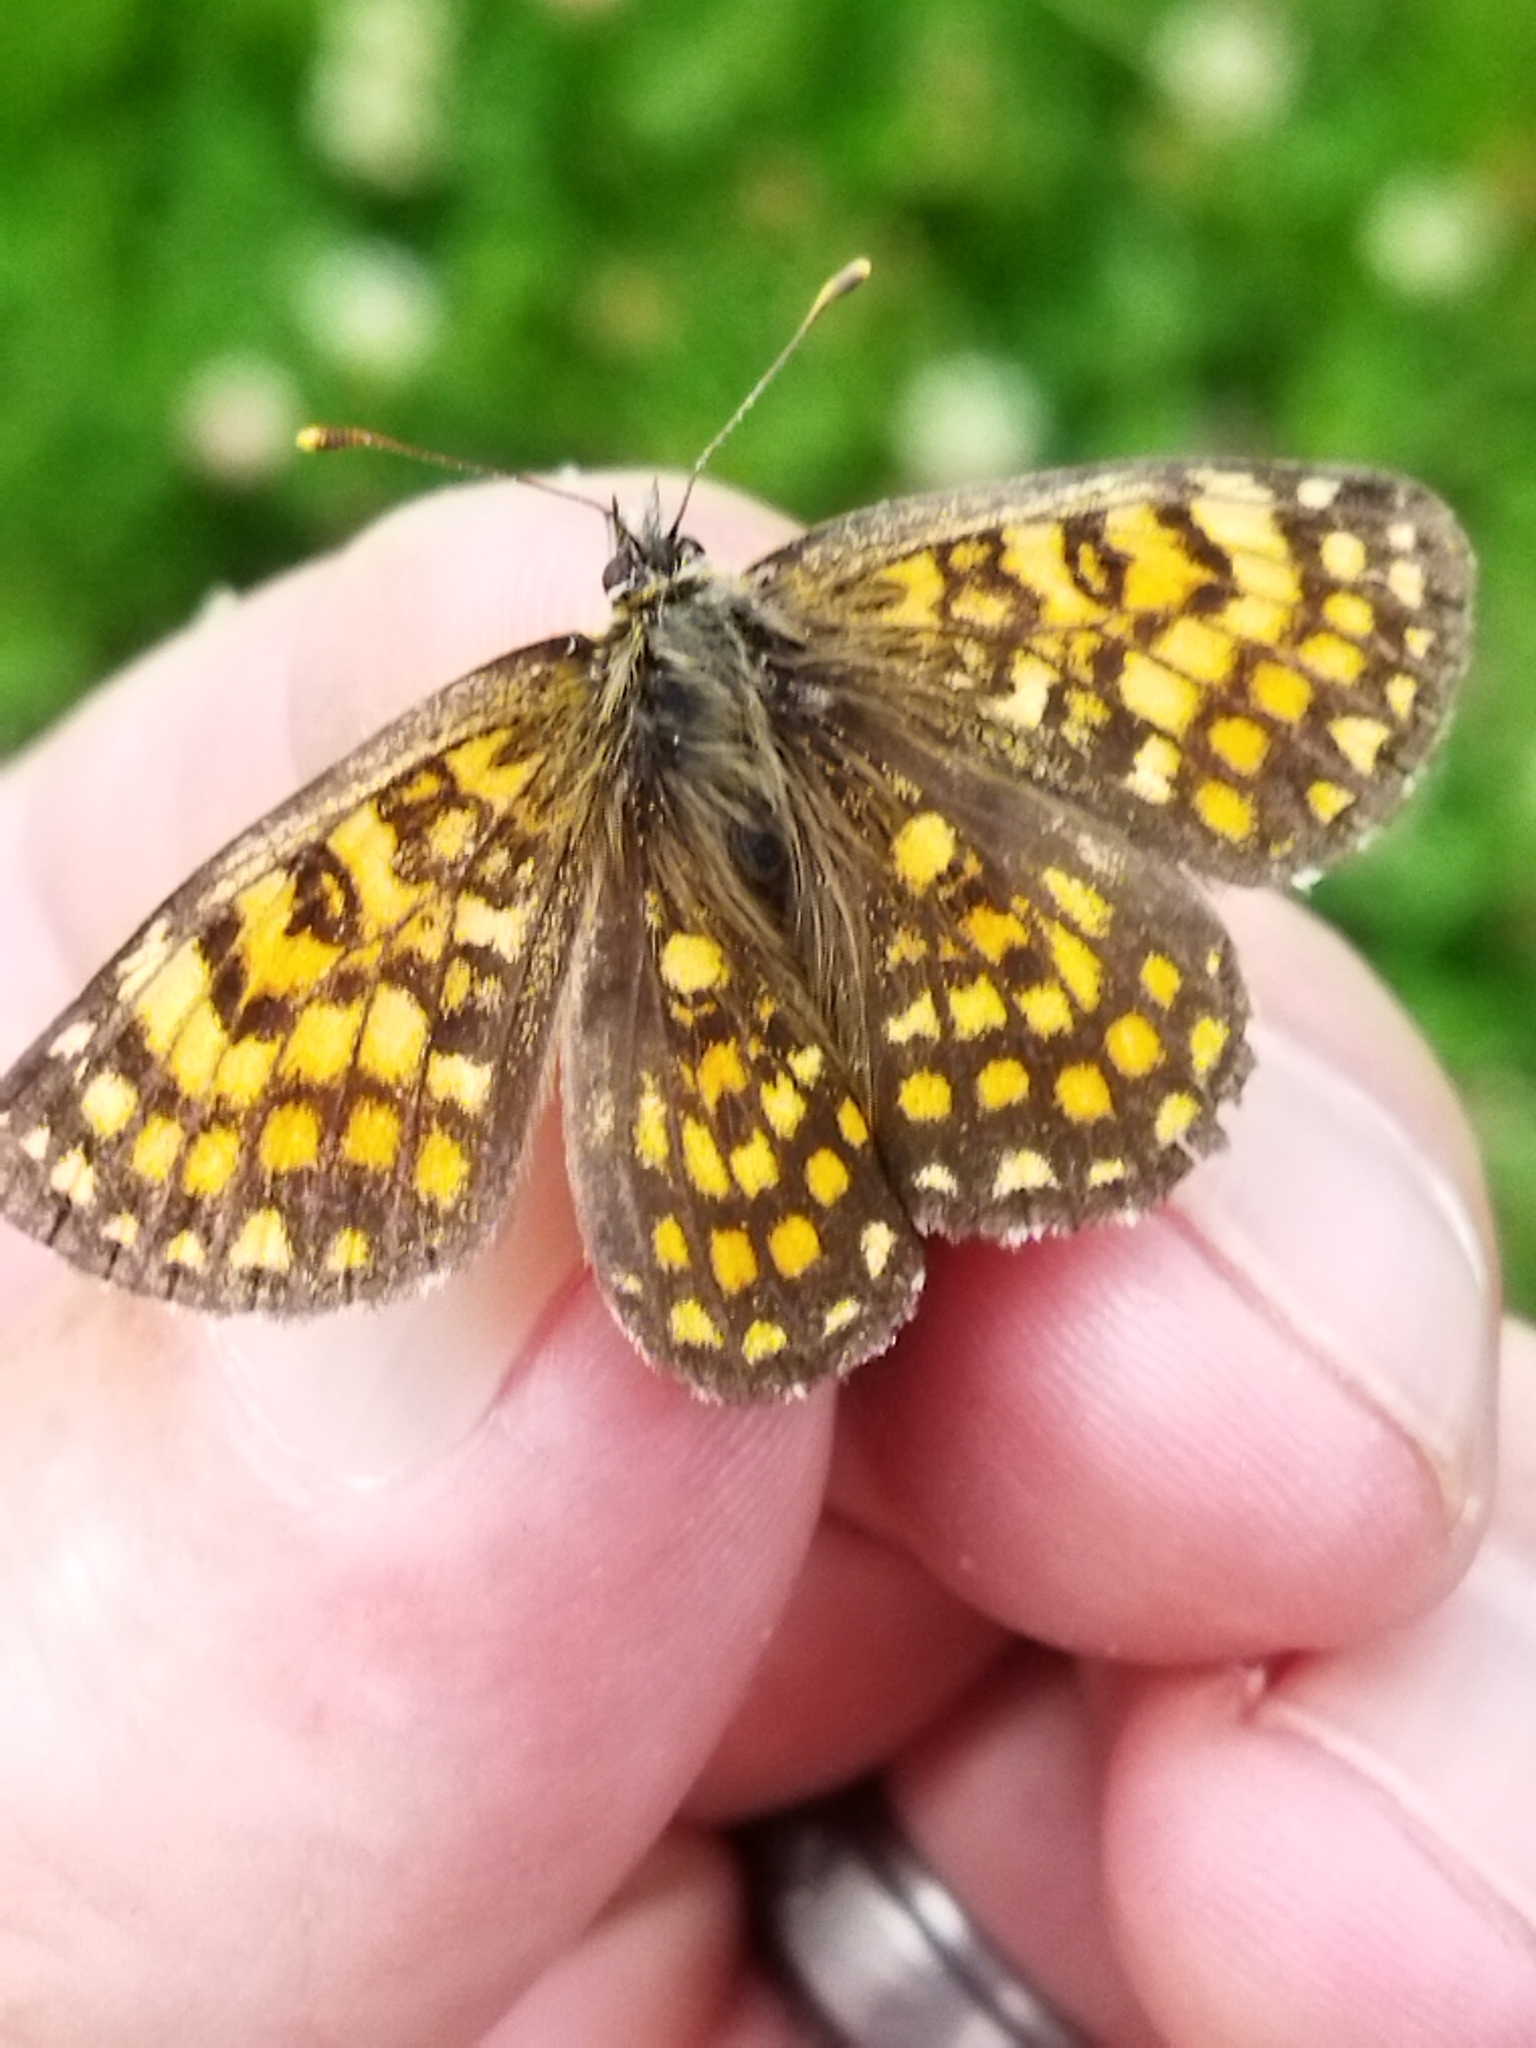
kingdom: Animalia
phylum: Arthropoda
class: Insecta
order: Lepidoptera
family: Nymphalidae
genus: Melitaea
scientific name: Melitaea athalia
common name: Heath fritillary
